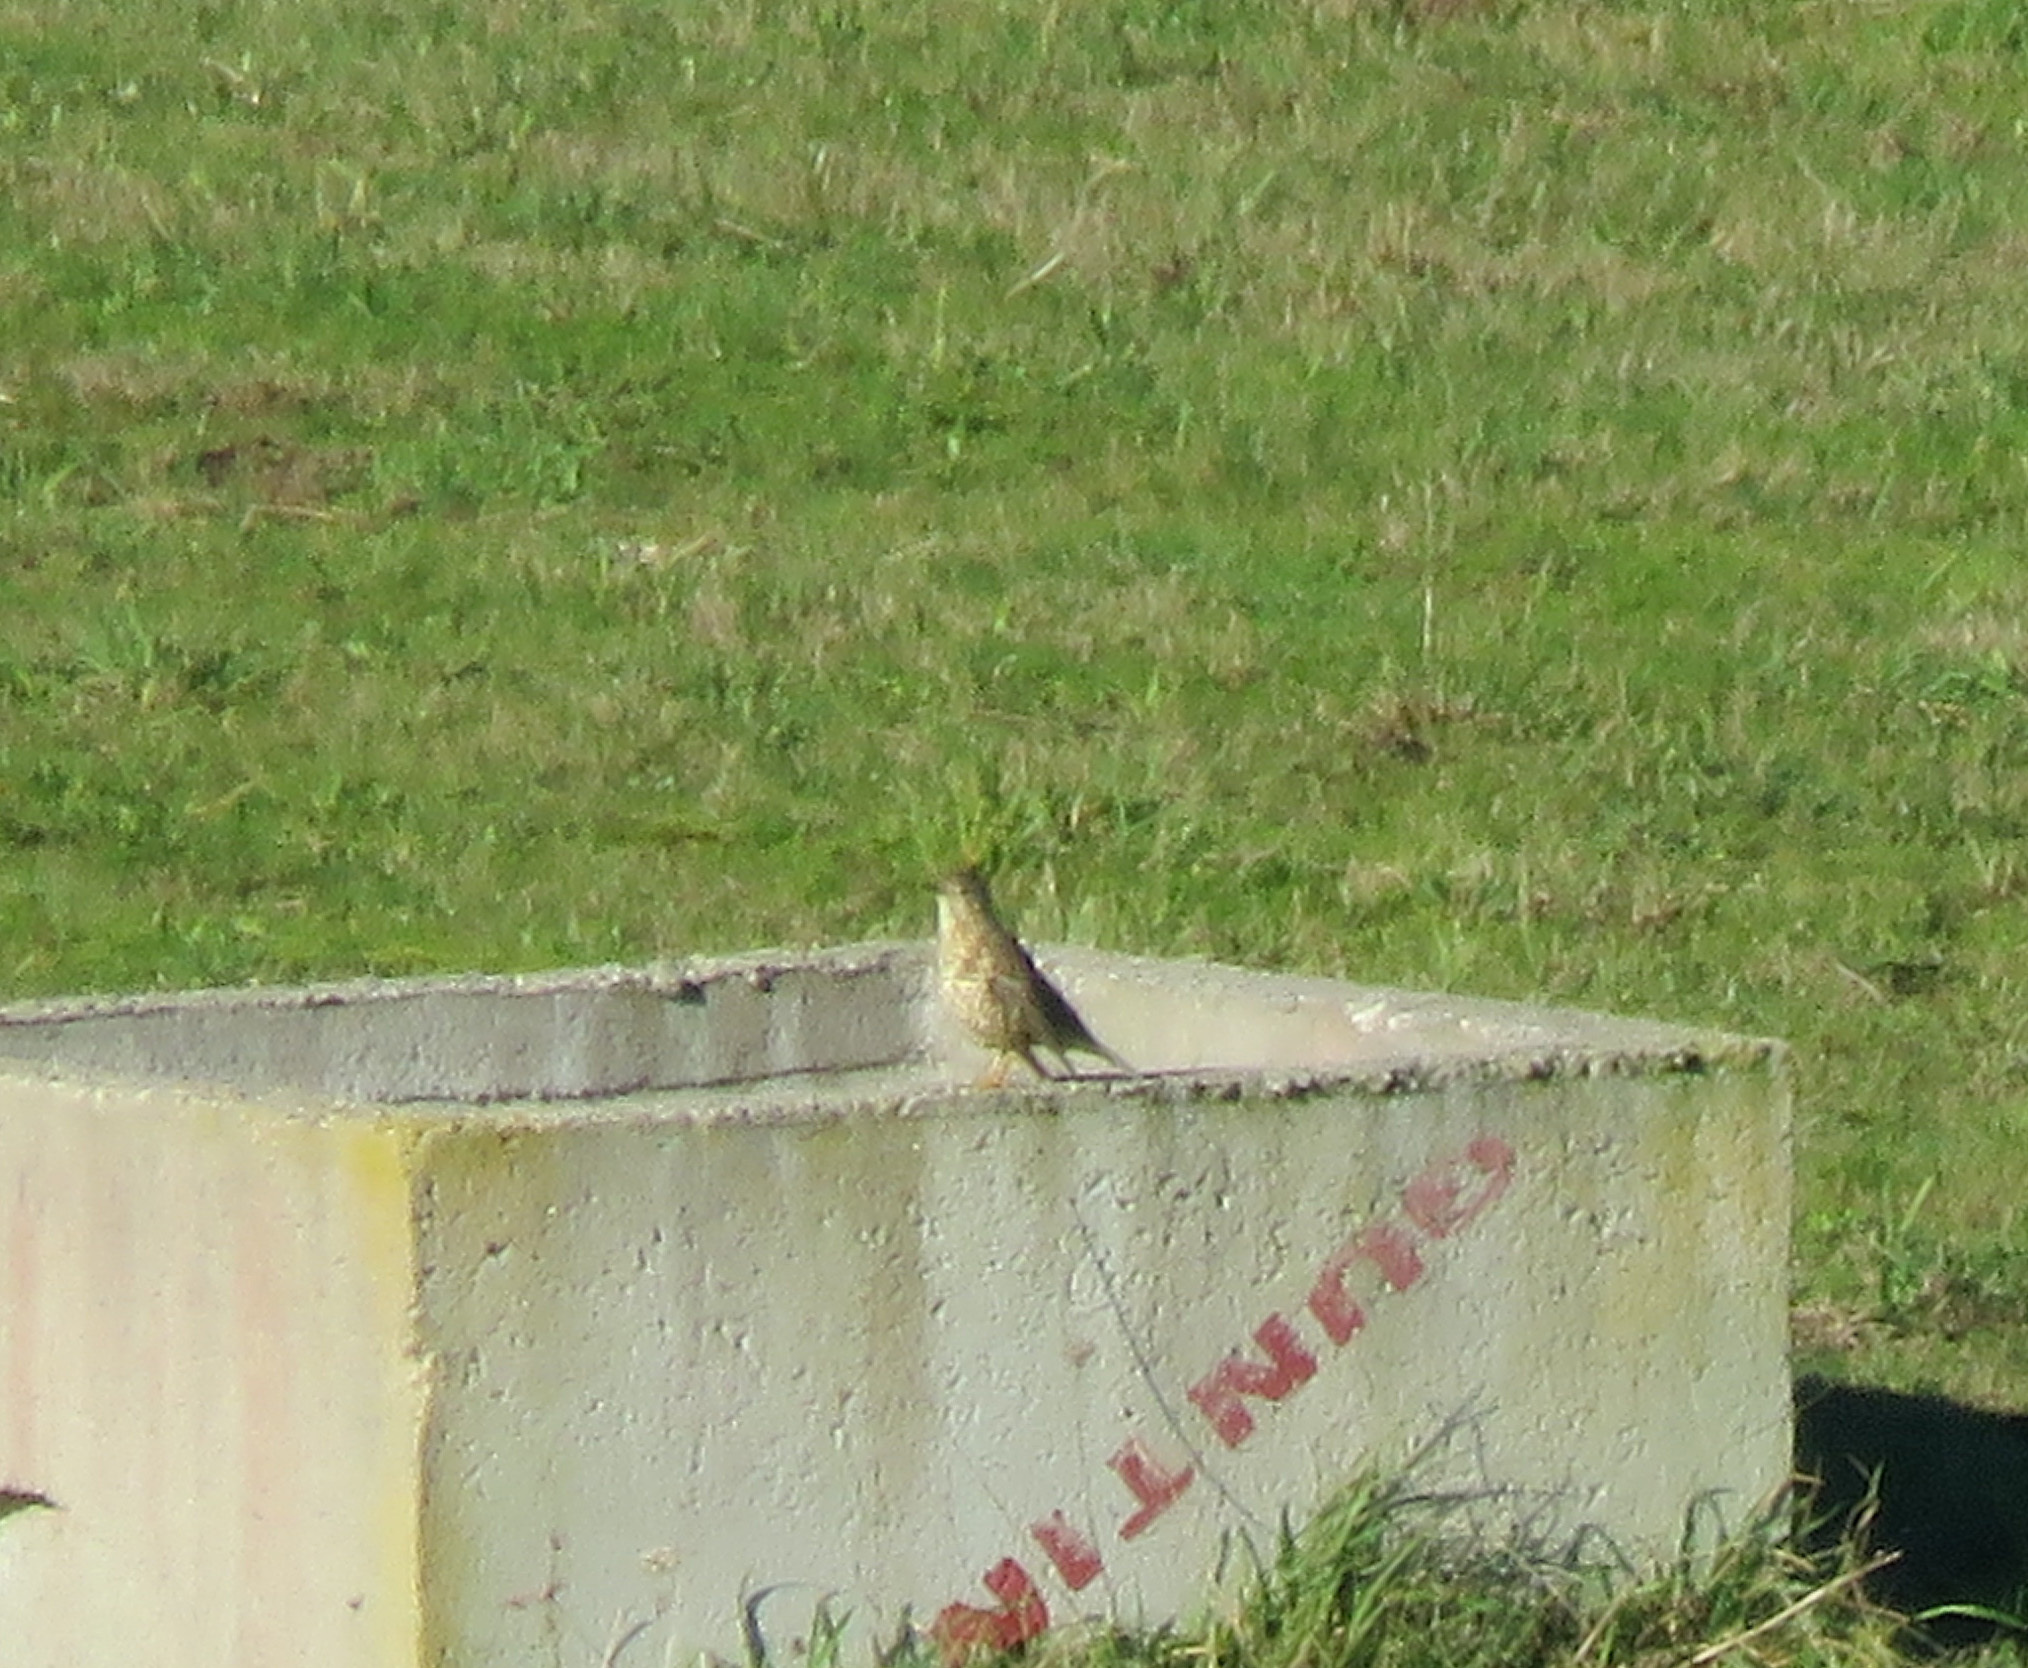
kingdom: Animalia
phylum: Chordata
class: Aves
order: Passeriformes
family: Turdidae
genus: Turdus
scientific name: Turdus viscivorus
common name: Mistle thrush
